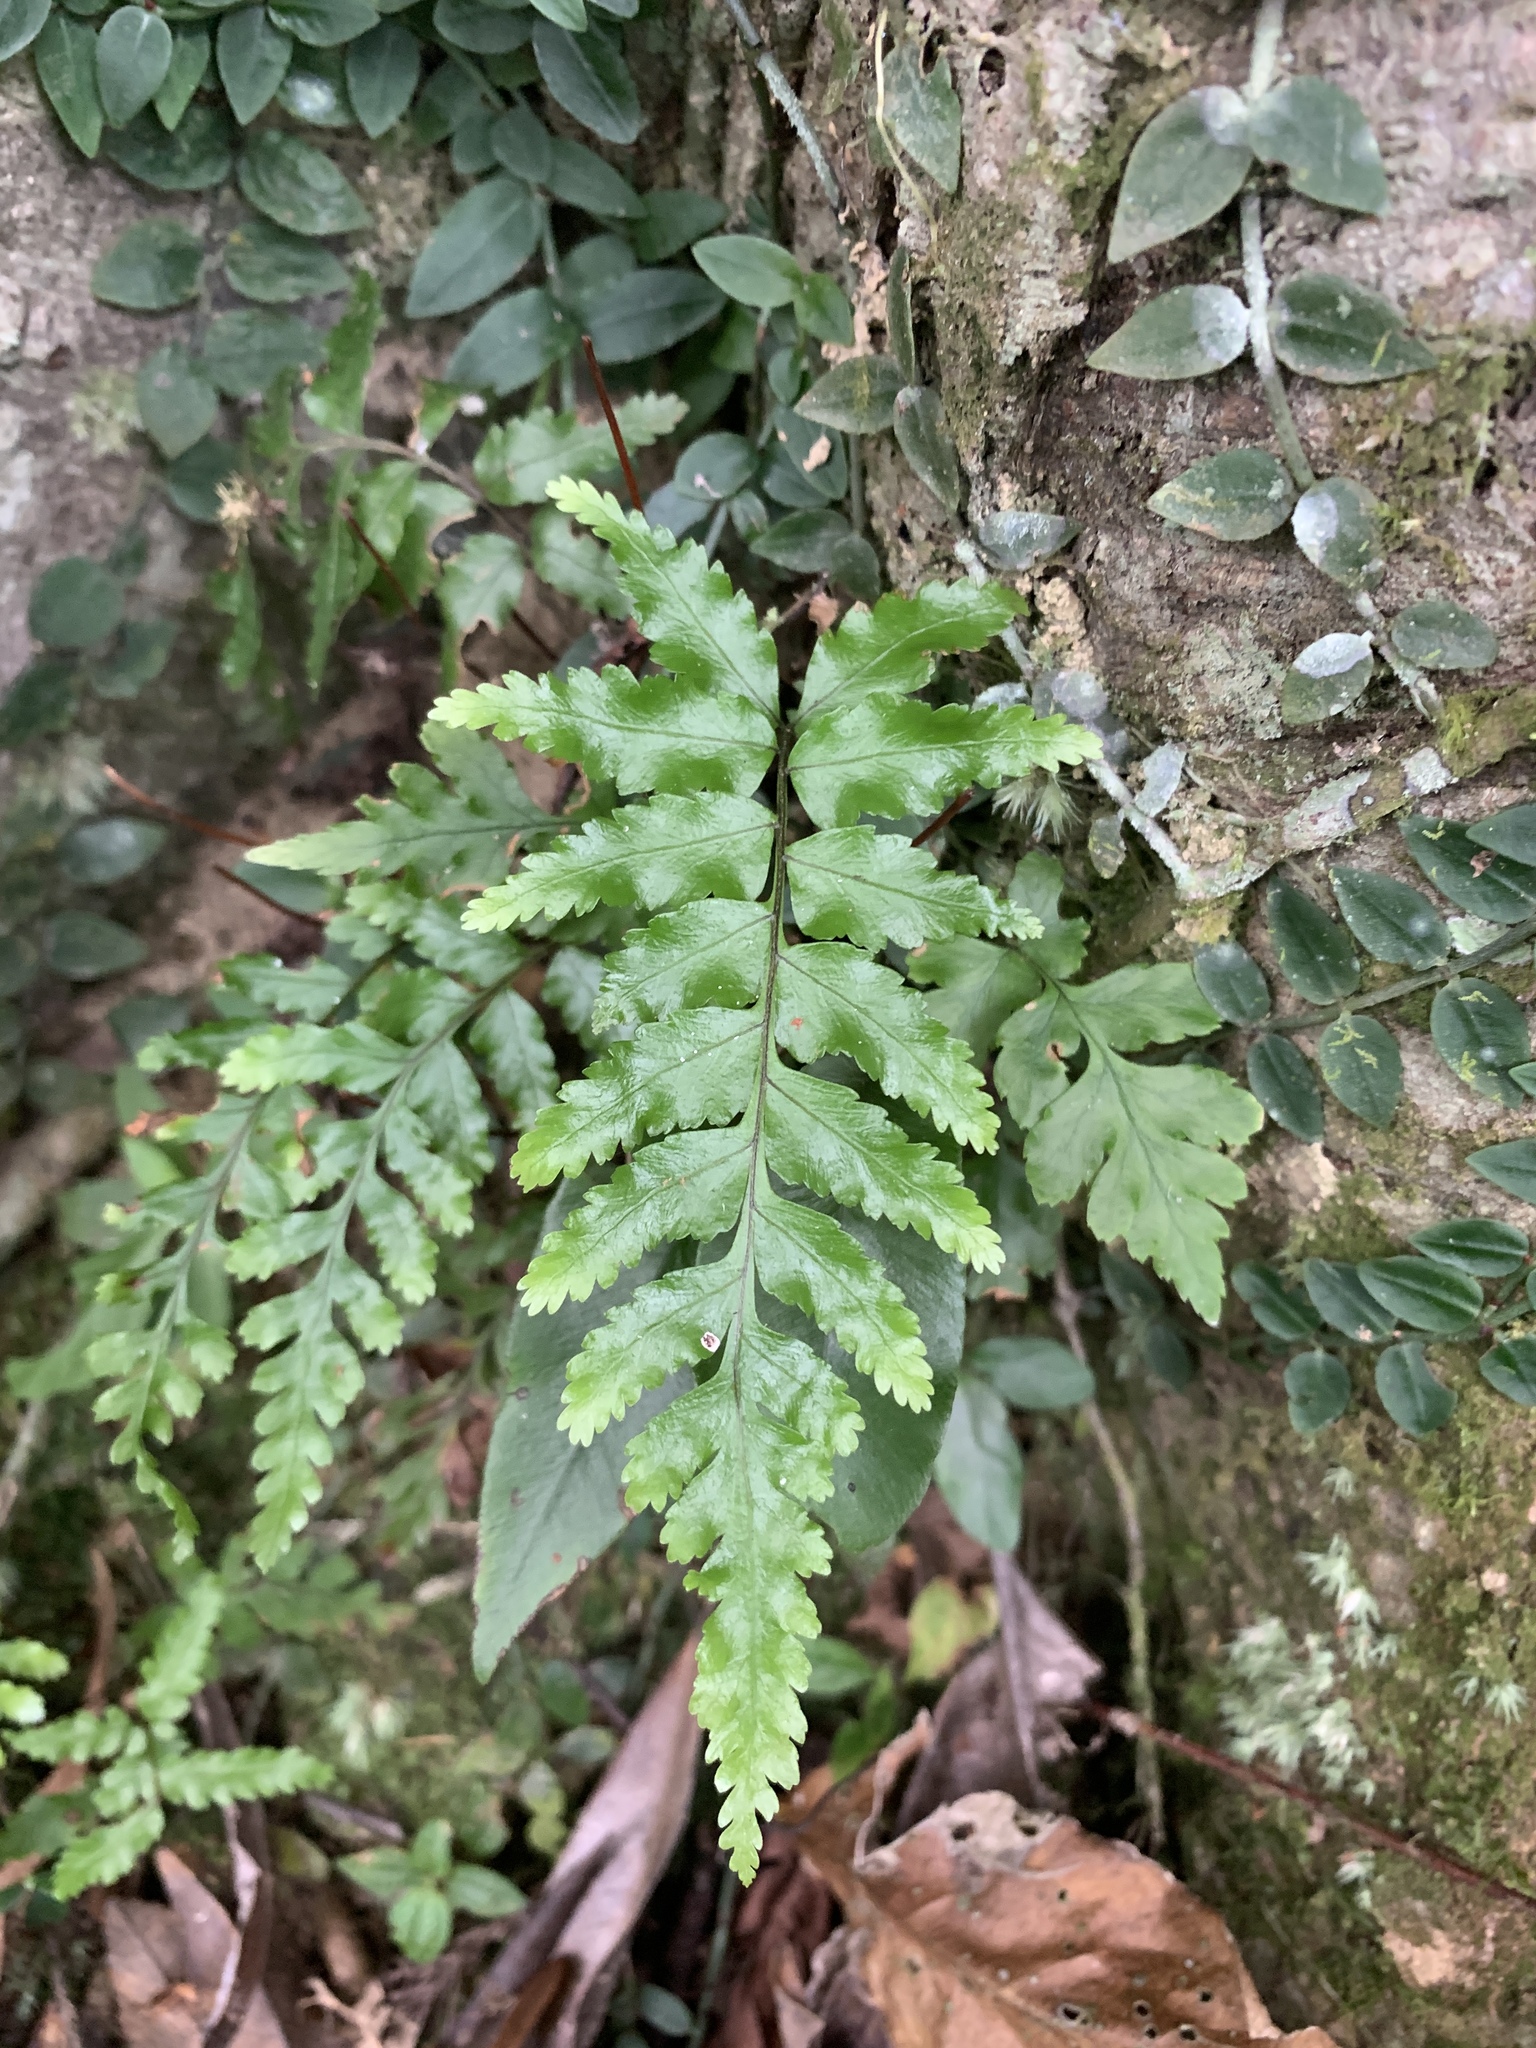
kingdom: Plantae
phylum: Tracheophyta
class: Polypodiopsida
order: Cyatheales
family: Cyatheaceae
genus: Gymnosphaera
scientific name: Gymnosphaera podophylla
